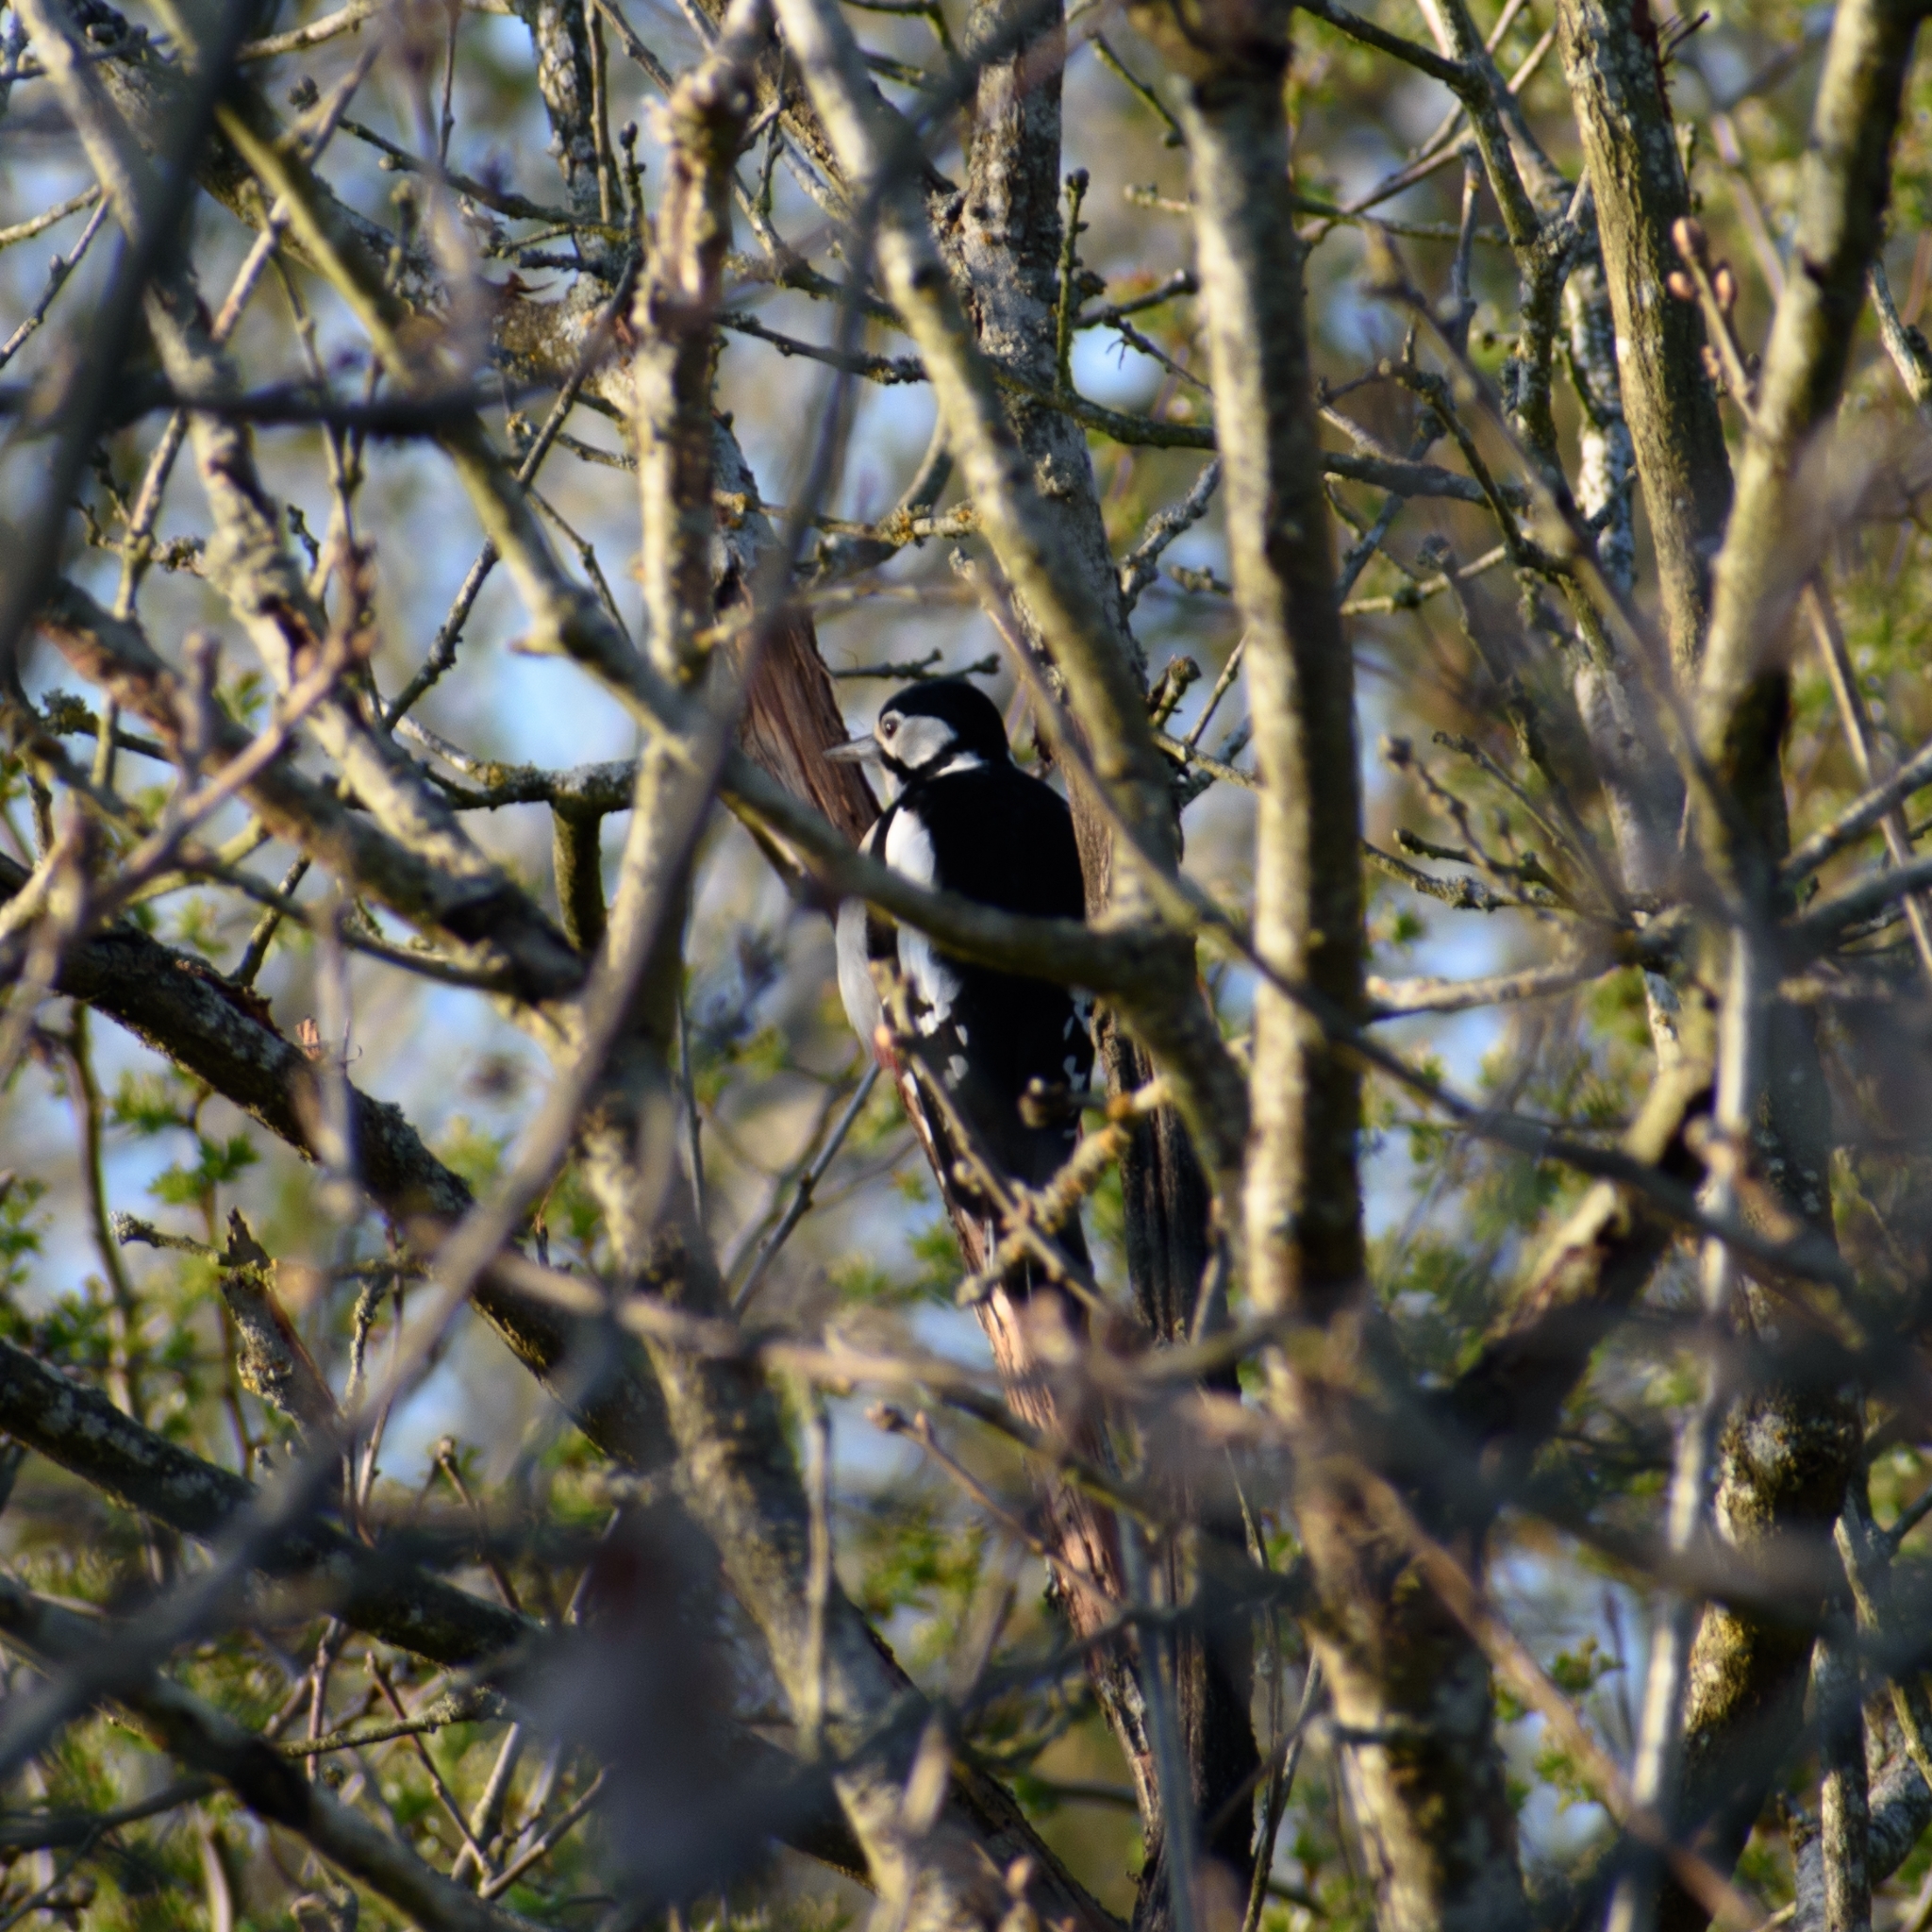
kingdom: Animalia
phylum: Chordata
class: Aves
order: Piciformes
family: Picidae
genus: Dendrocopos
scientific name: Dendrocopos major
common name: Great spotted woodpecker
